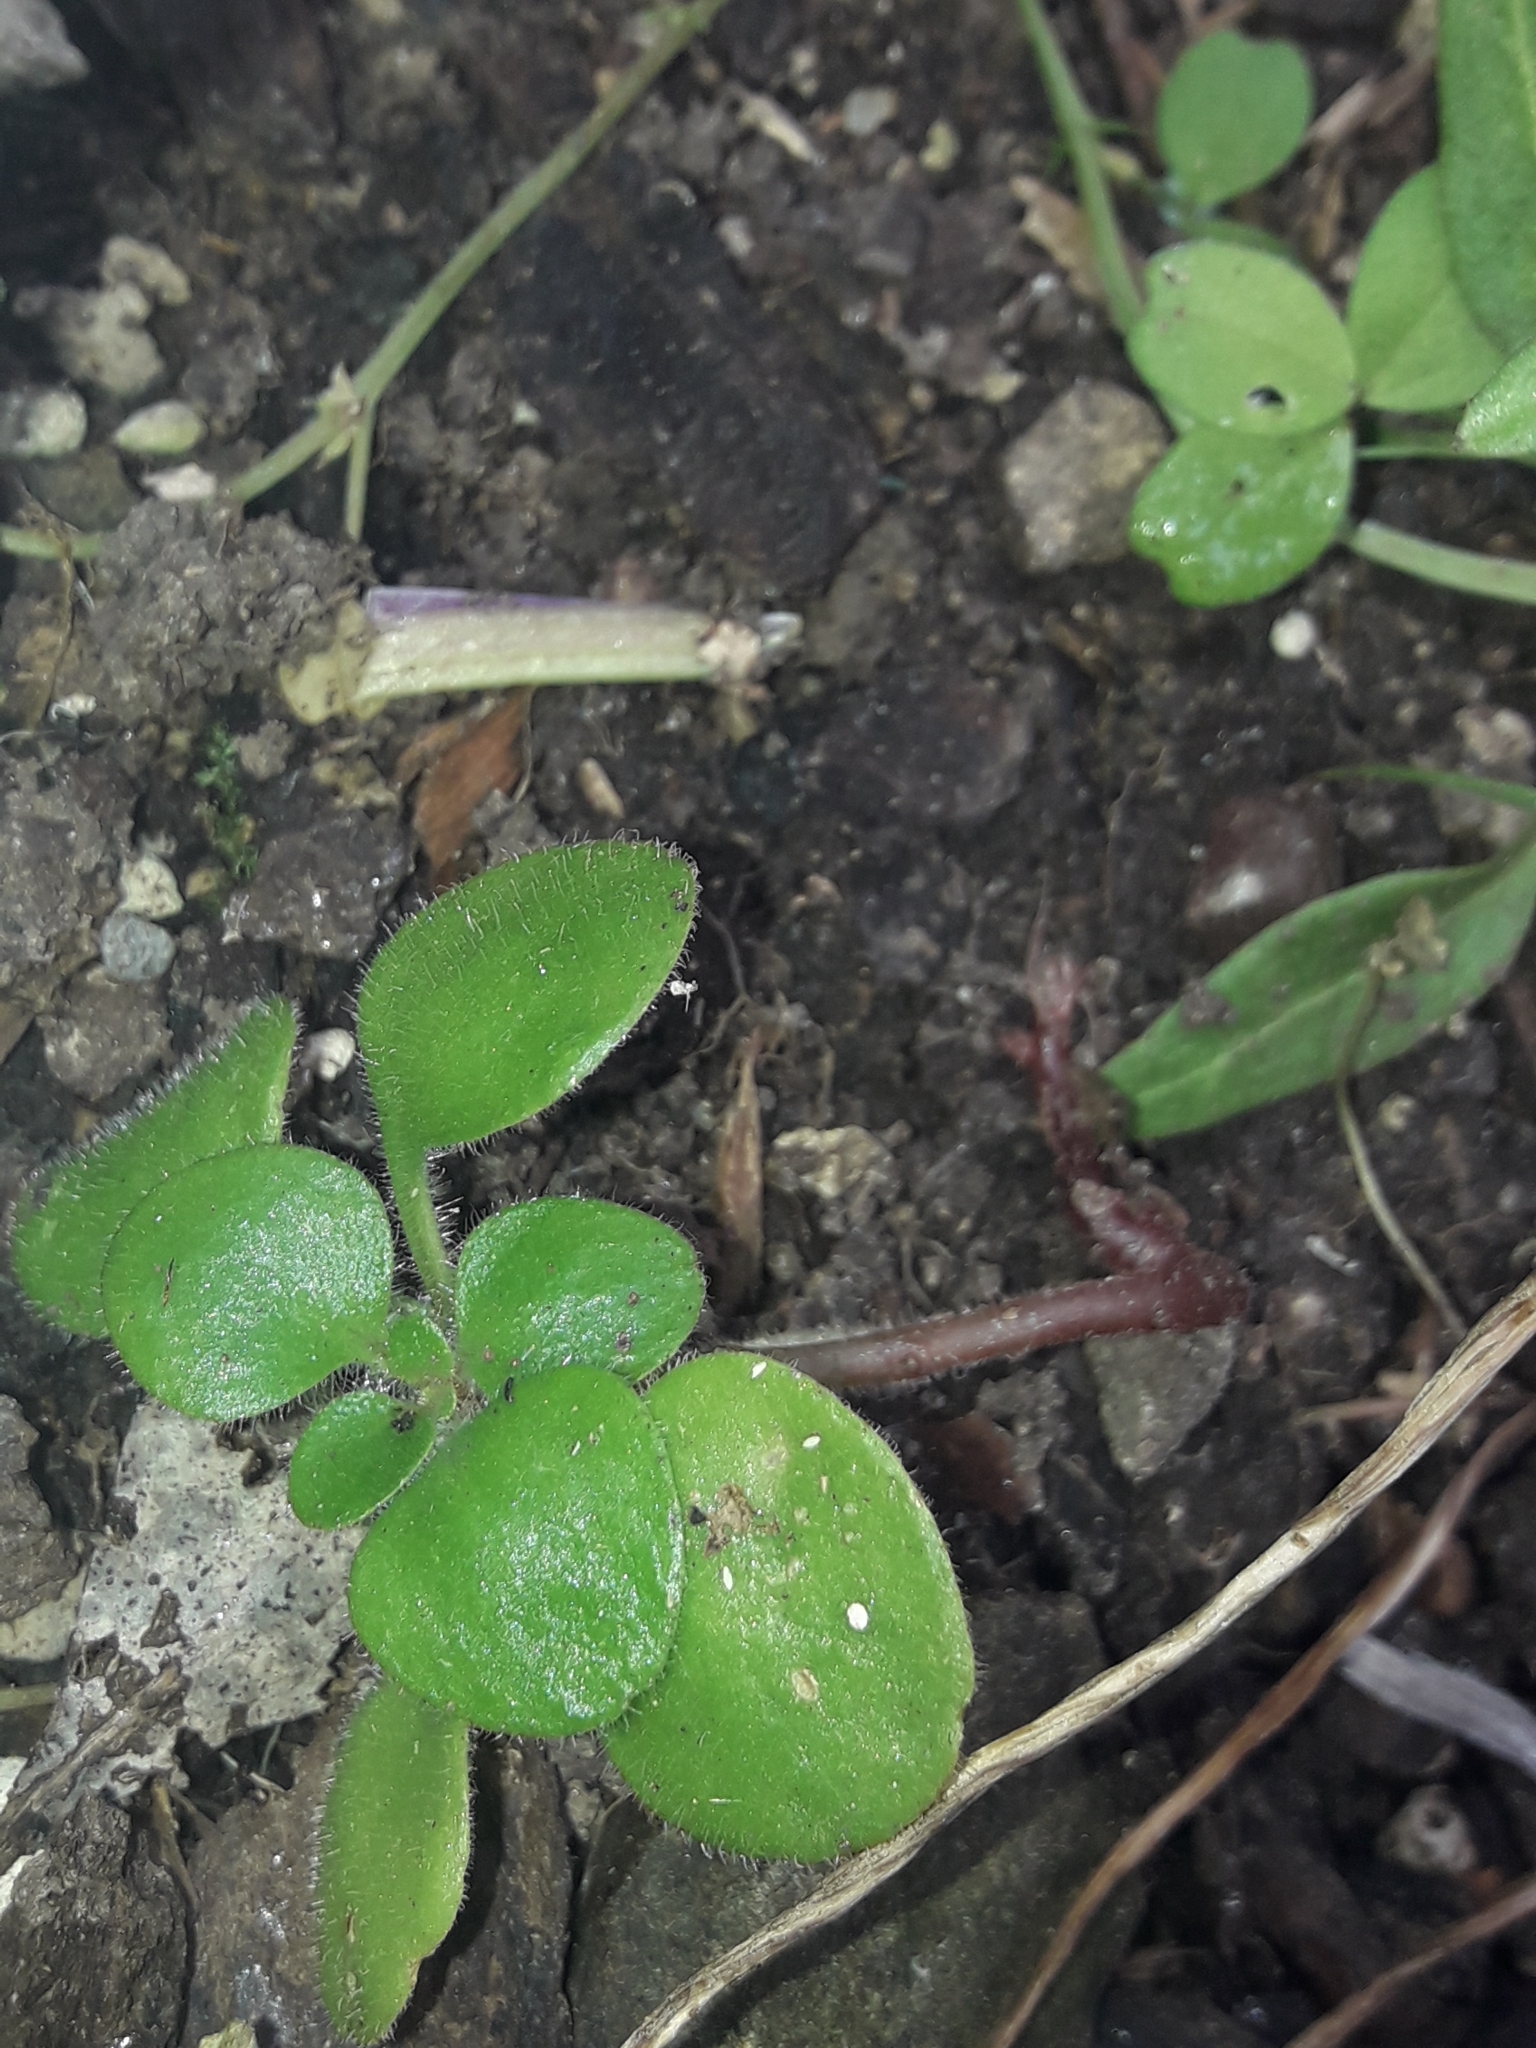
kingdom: Plantae
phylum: Tracheophyta
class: Magnoliopsida
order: Saxifragales
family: Crassulaceae
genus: Aichryson
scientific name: Aichryson laxum
